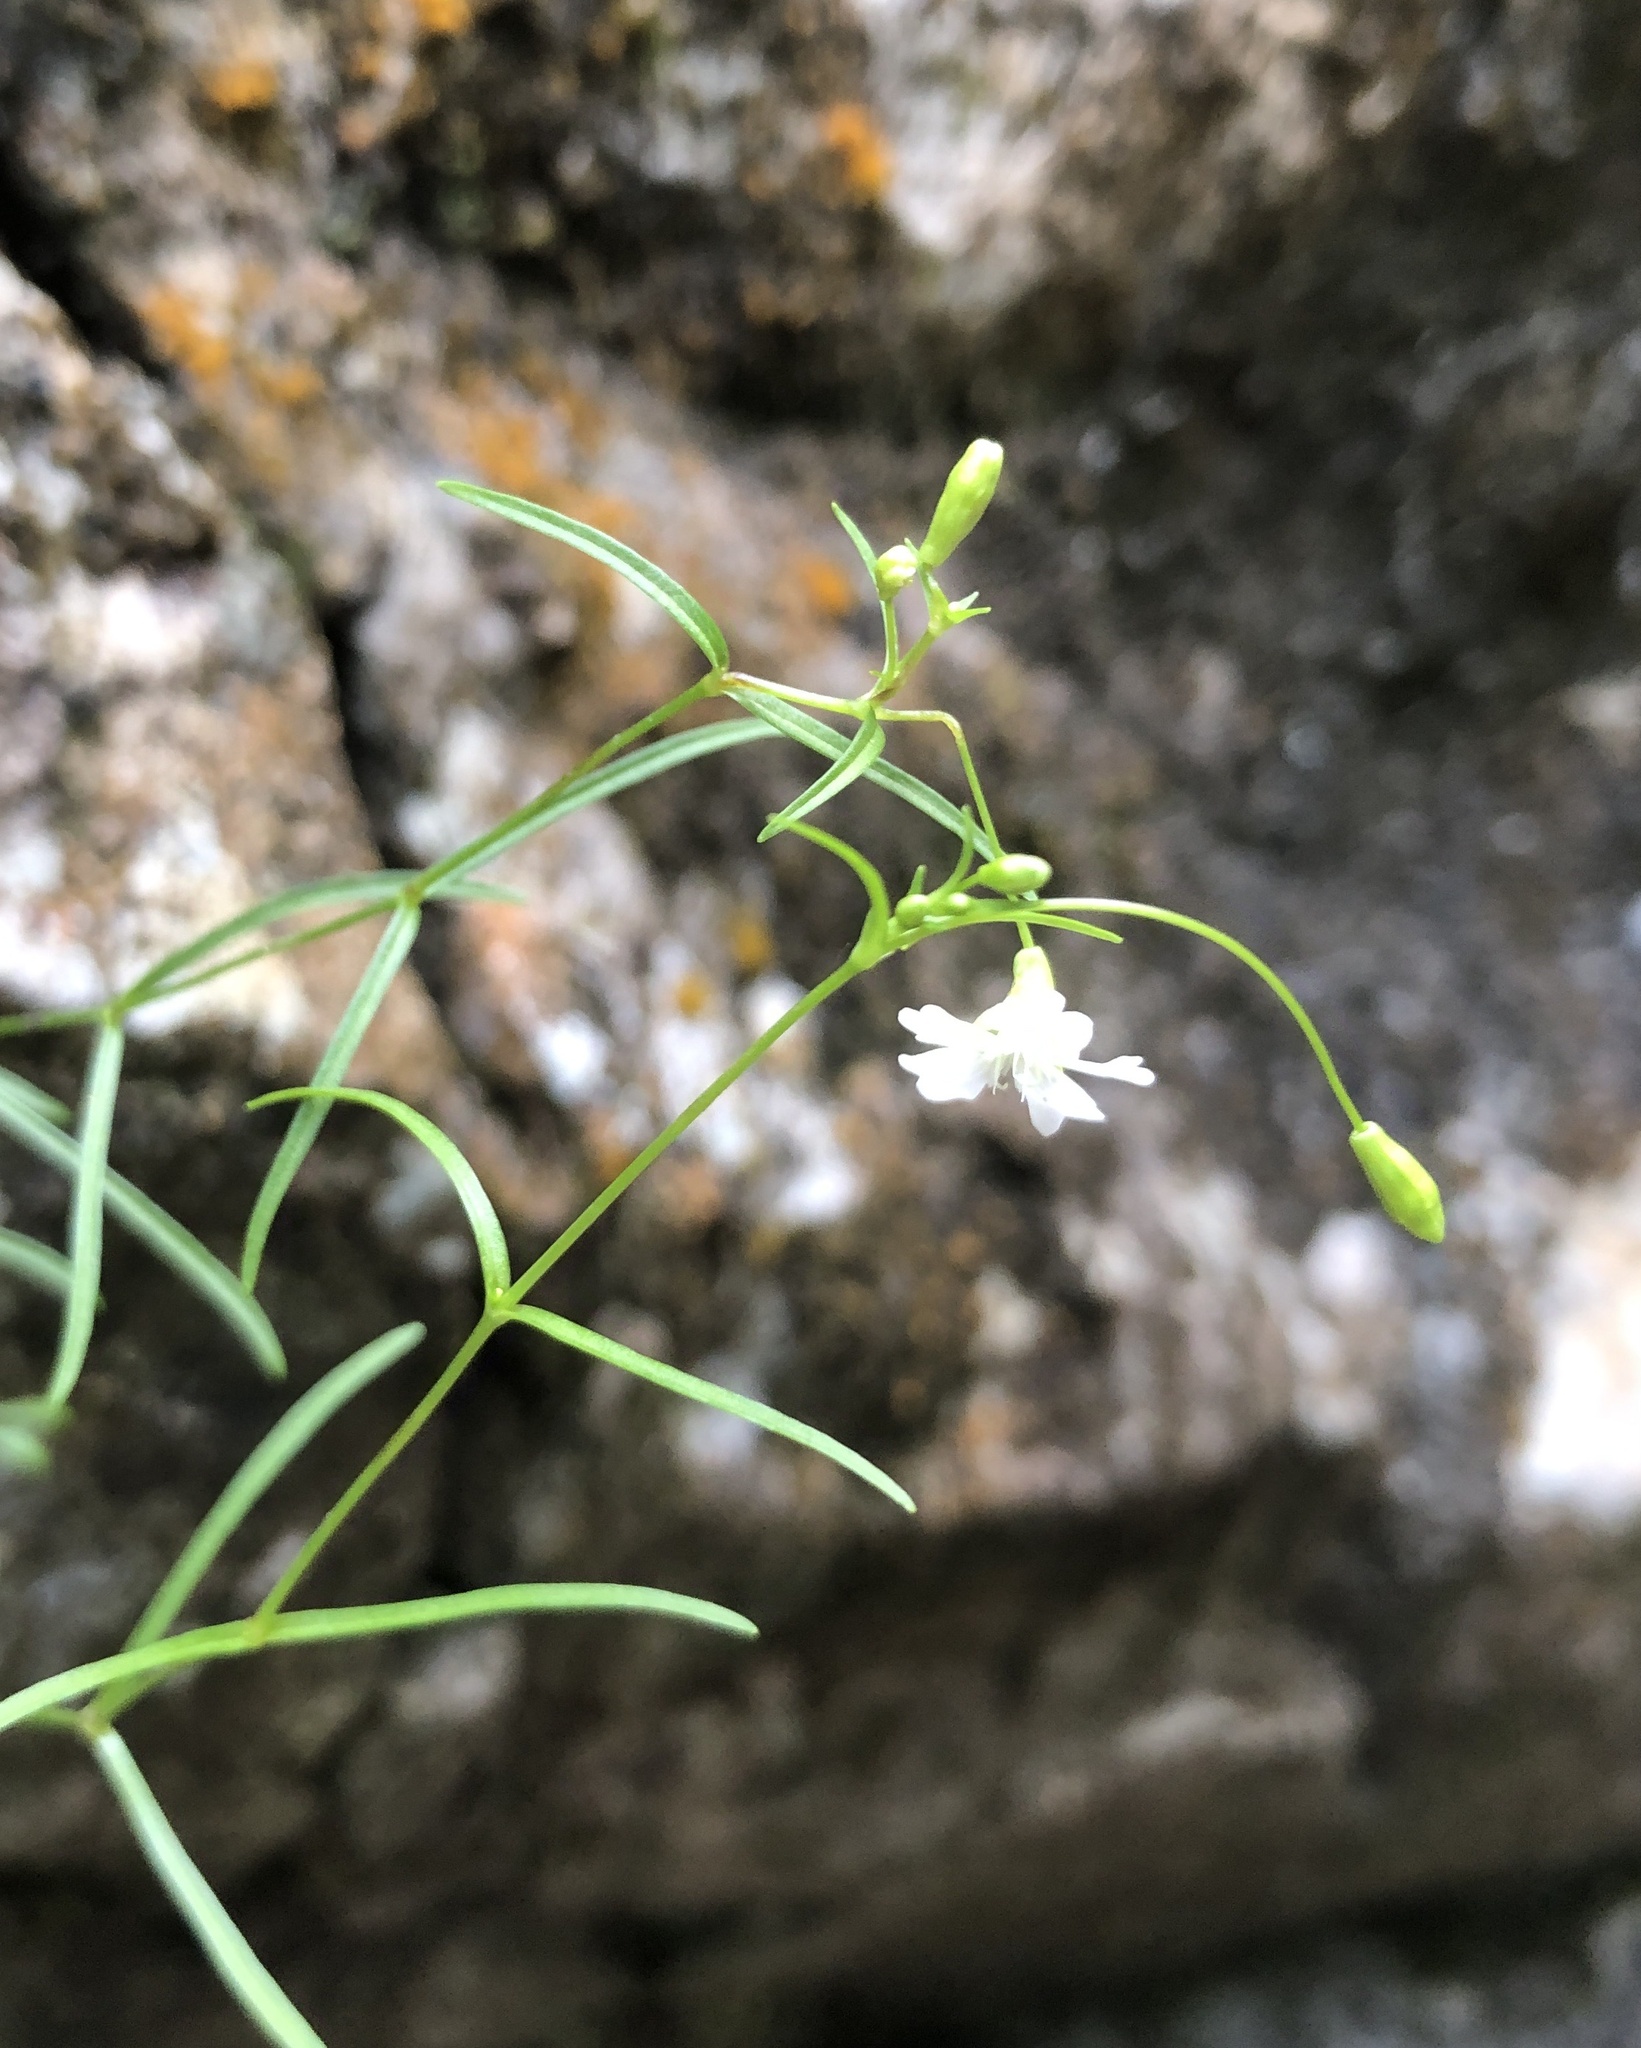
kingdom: Plantae
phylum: Tracheophyta
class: Magnoliopsida
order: Caryophyllales
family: Caryophyllaceae
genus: Heliosperma
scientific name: Heliosperma pusillum
